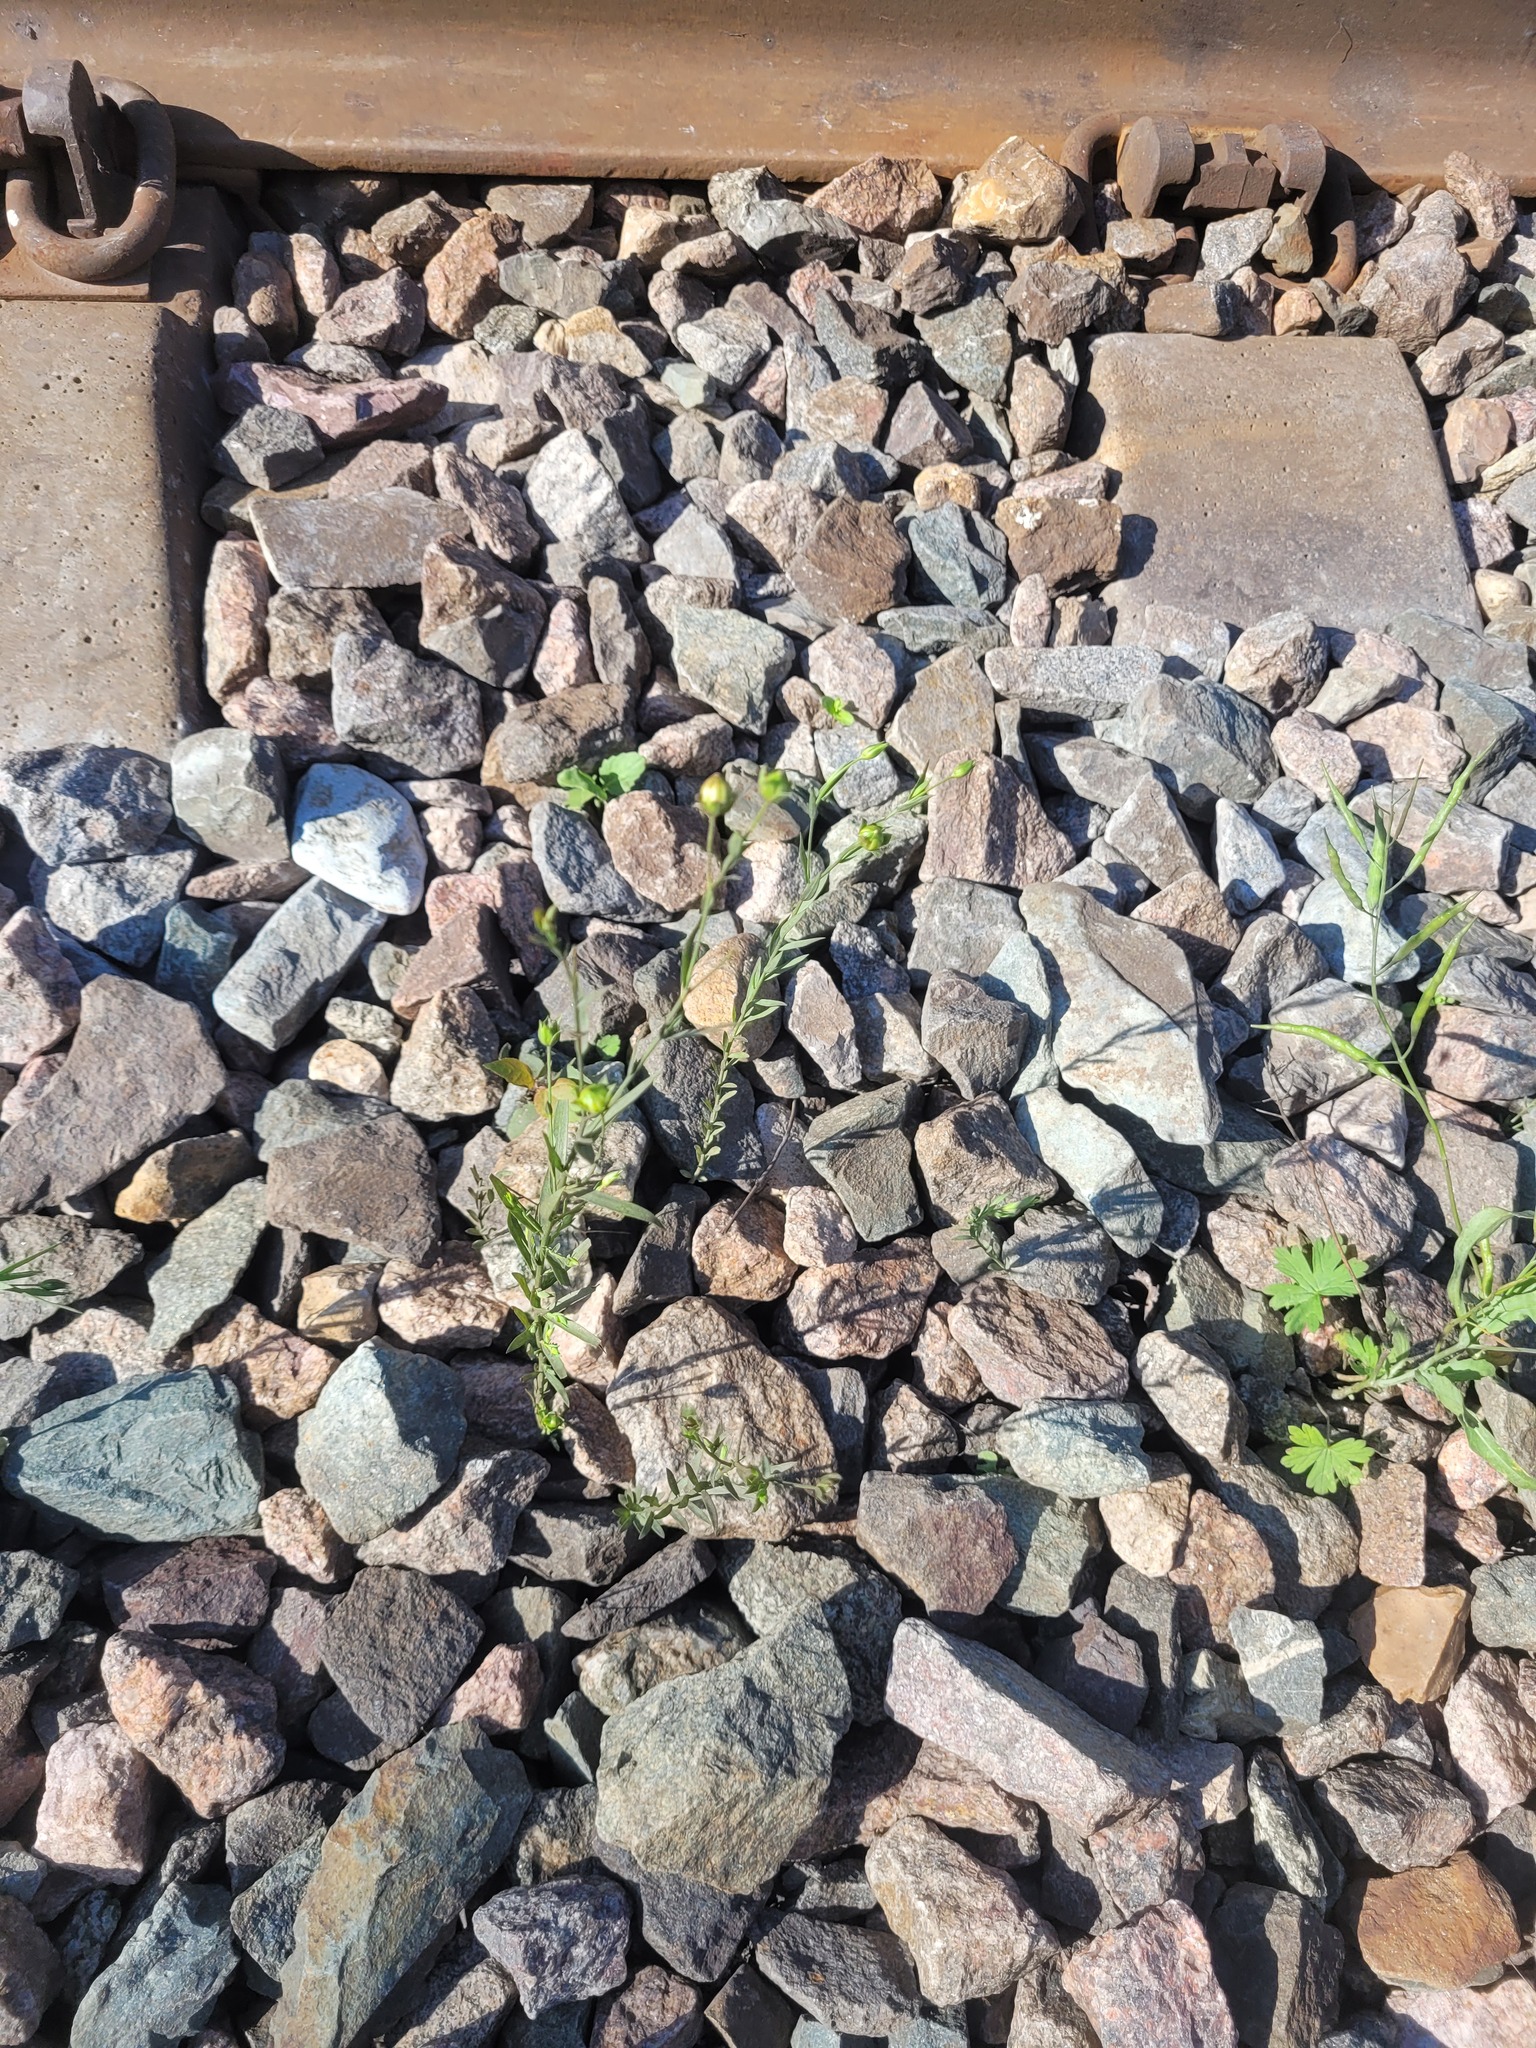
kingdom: Plantae
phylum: Tracheophyta
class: Magnoliopsida
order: Malpighiales
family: Linaceae
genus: Linum
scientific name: Linum usitatissimum
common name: Flax
